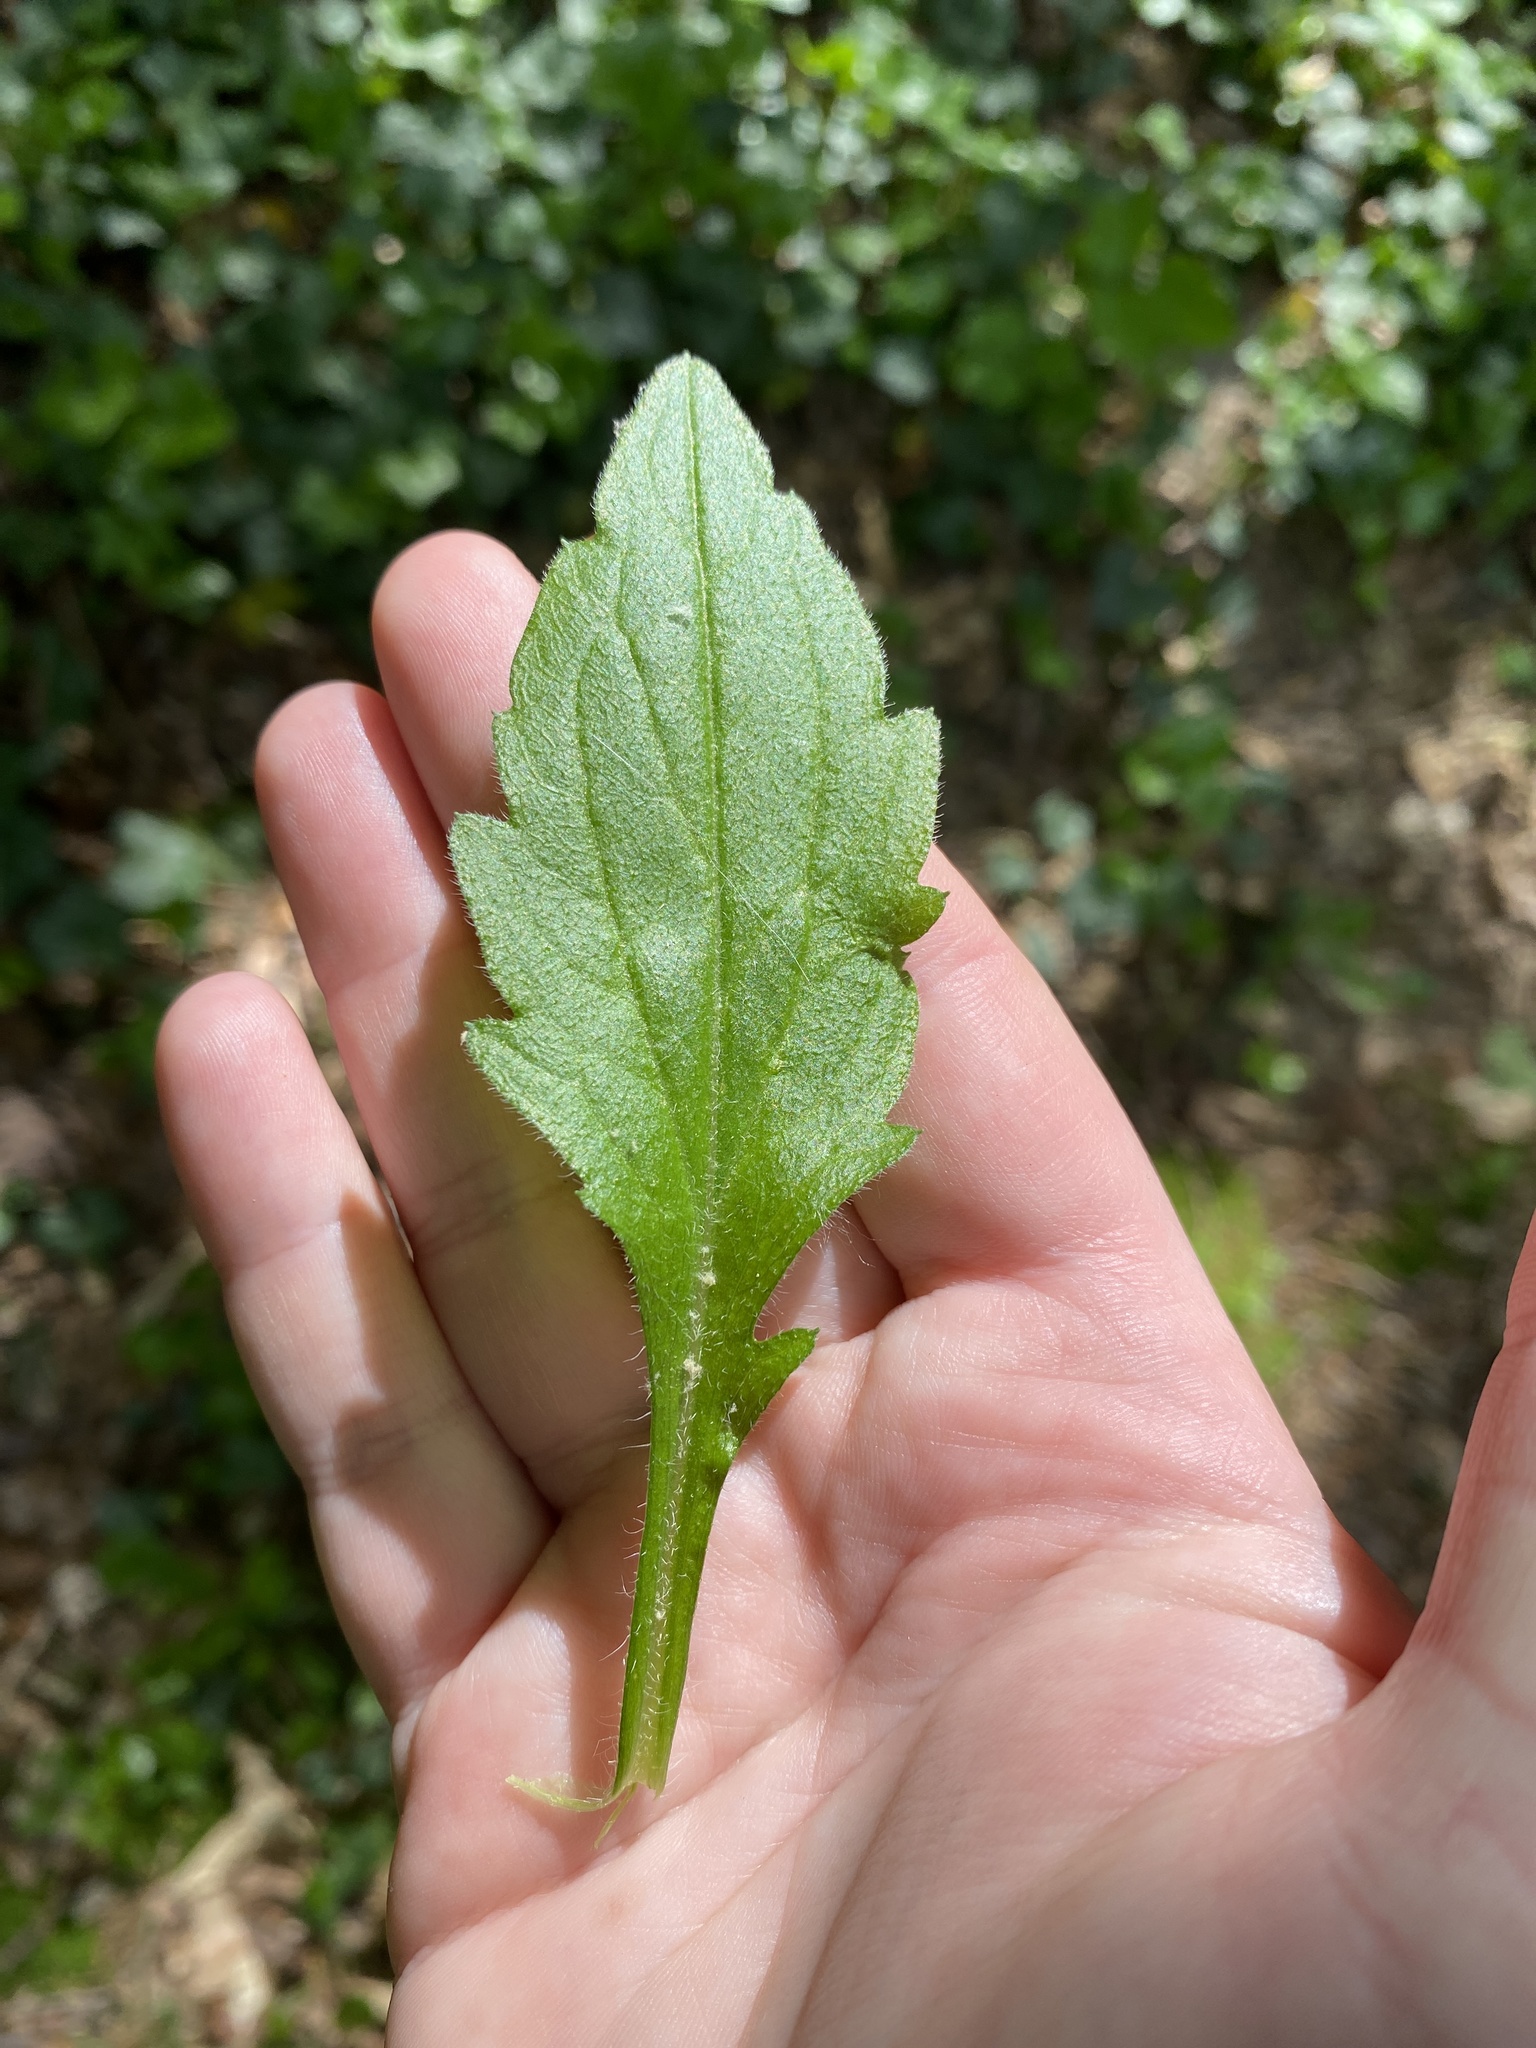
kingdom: Plantae
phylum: Tracheophyta
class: Magnoliopsida
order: Asterales
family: Asteraceae
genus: Erigeron
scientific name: Erigeron annuus
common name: Tall fleabane
